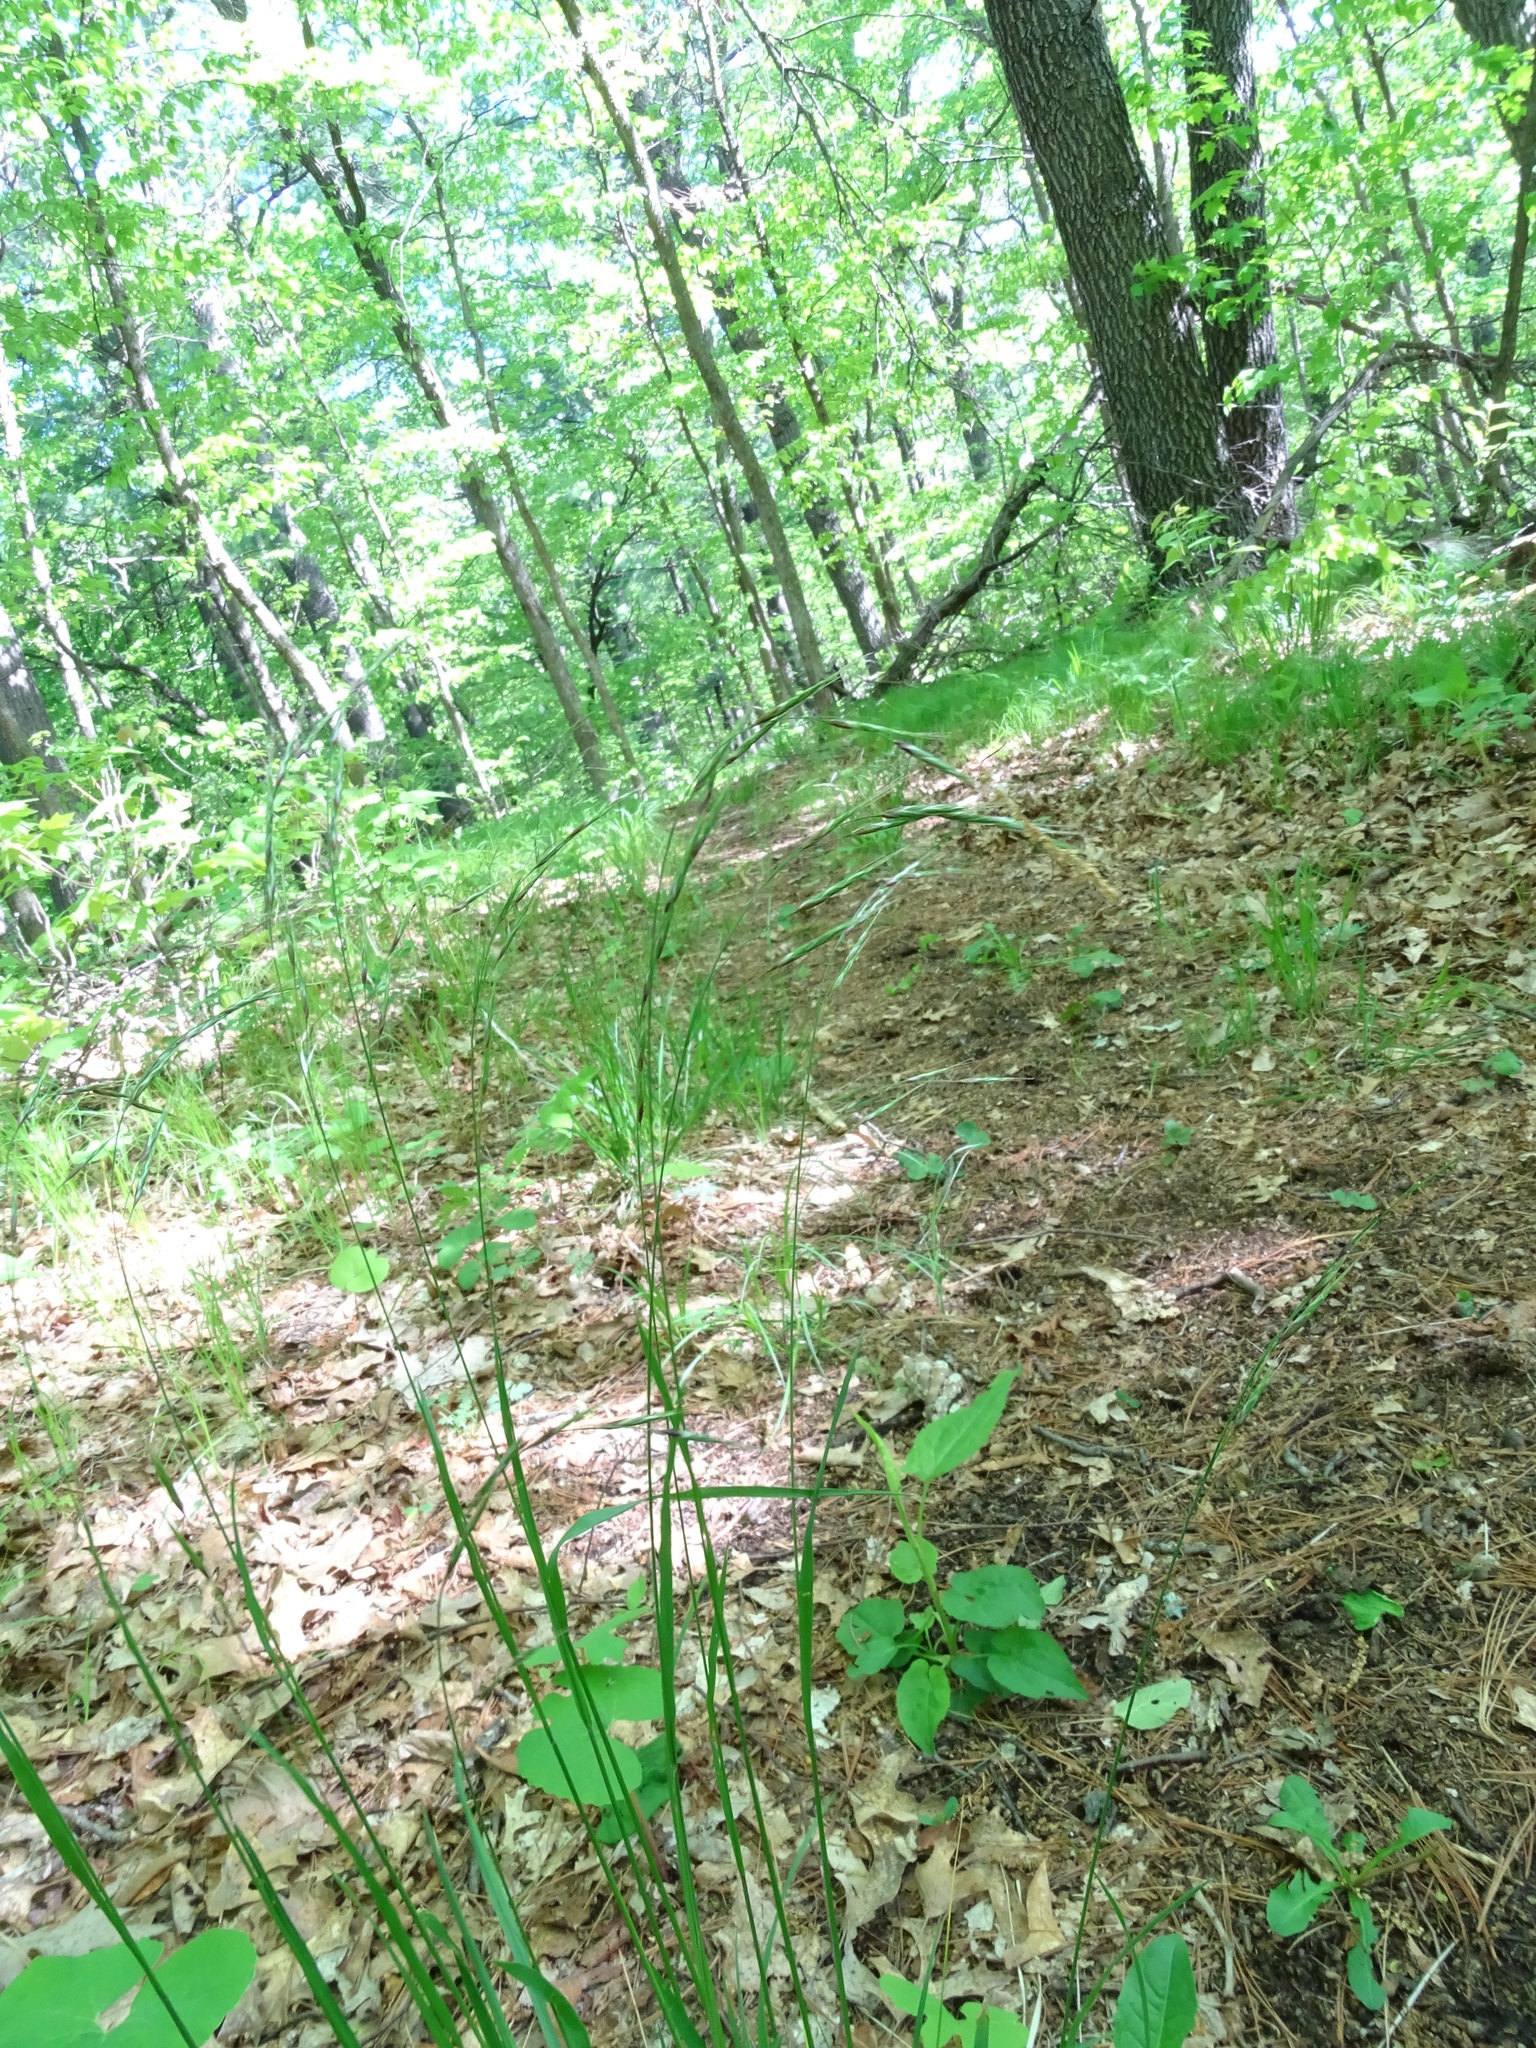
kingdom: Plantae
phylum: Tracheophyta
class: Liliopsida
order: Poales
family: Poaceae
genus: Schizachne
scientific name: Schizachne purpurascens
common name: False melic
